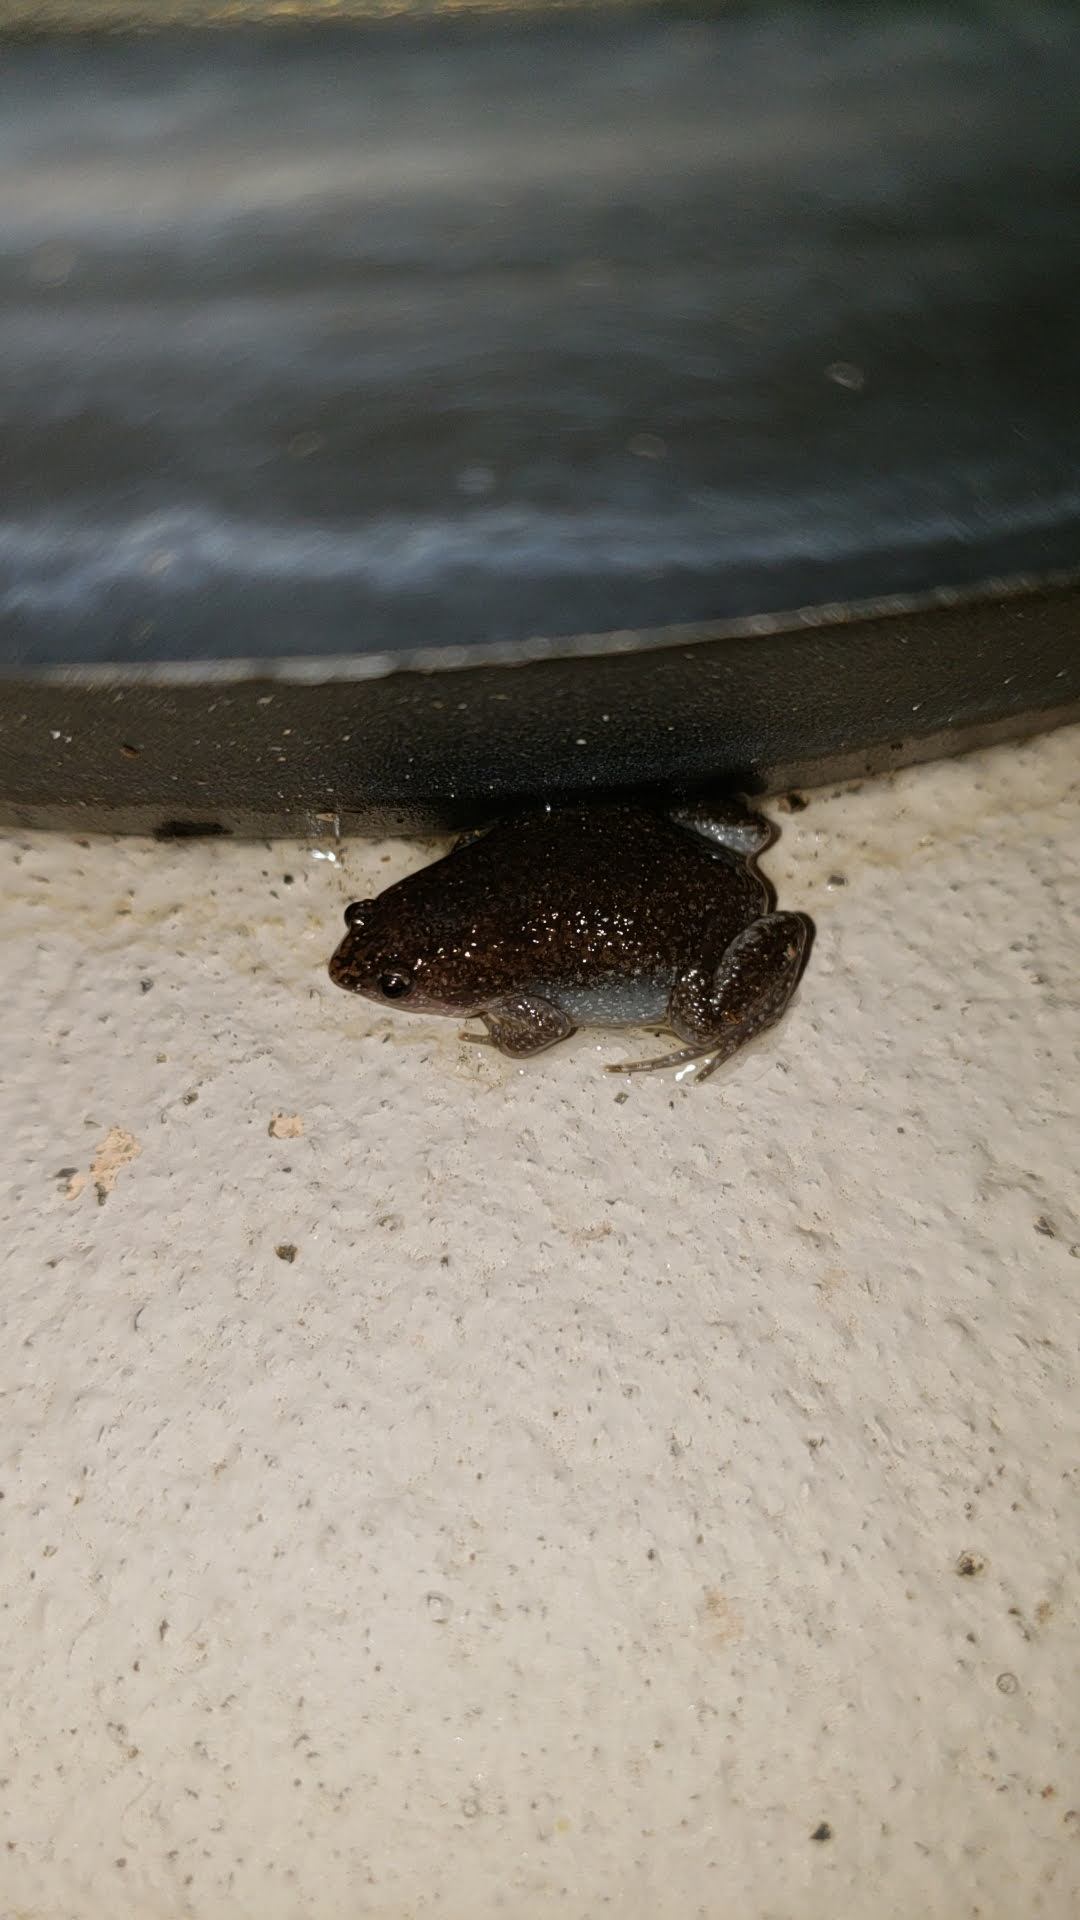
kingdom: Animalia
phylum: Chordata
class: Amphibia
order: Anura
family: Microhylidae
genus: Gastrophryne
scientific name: Gastrophryne carolinensis
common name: Eastern narrowmouth toad
